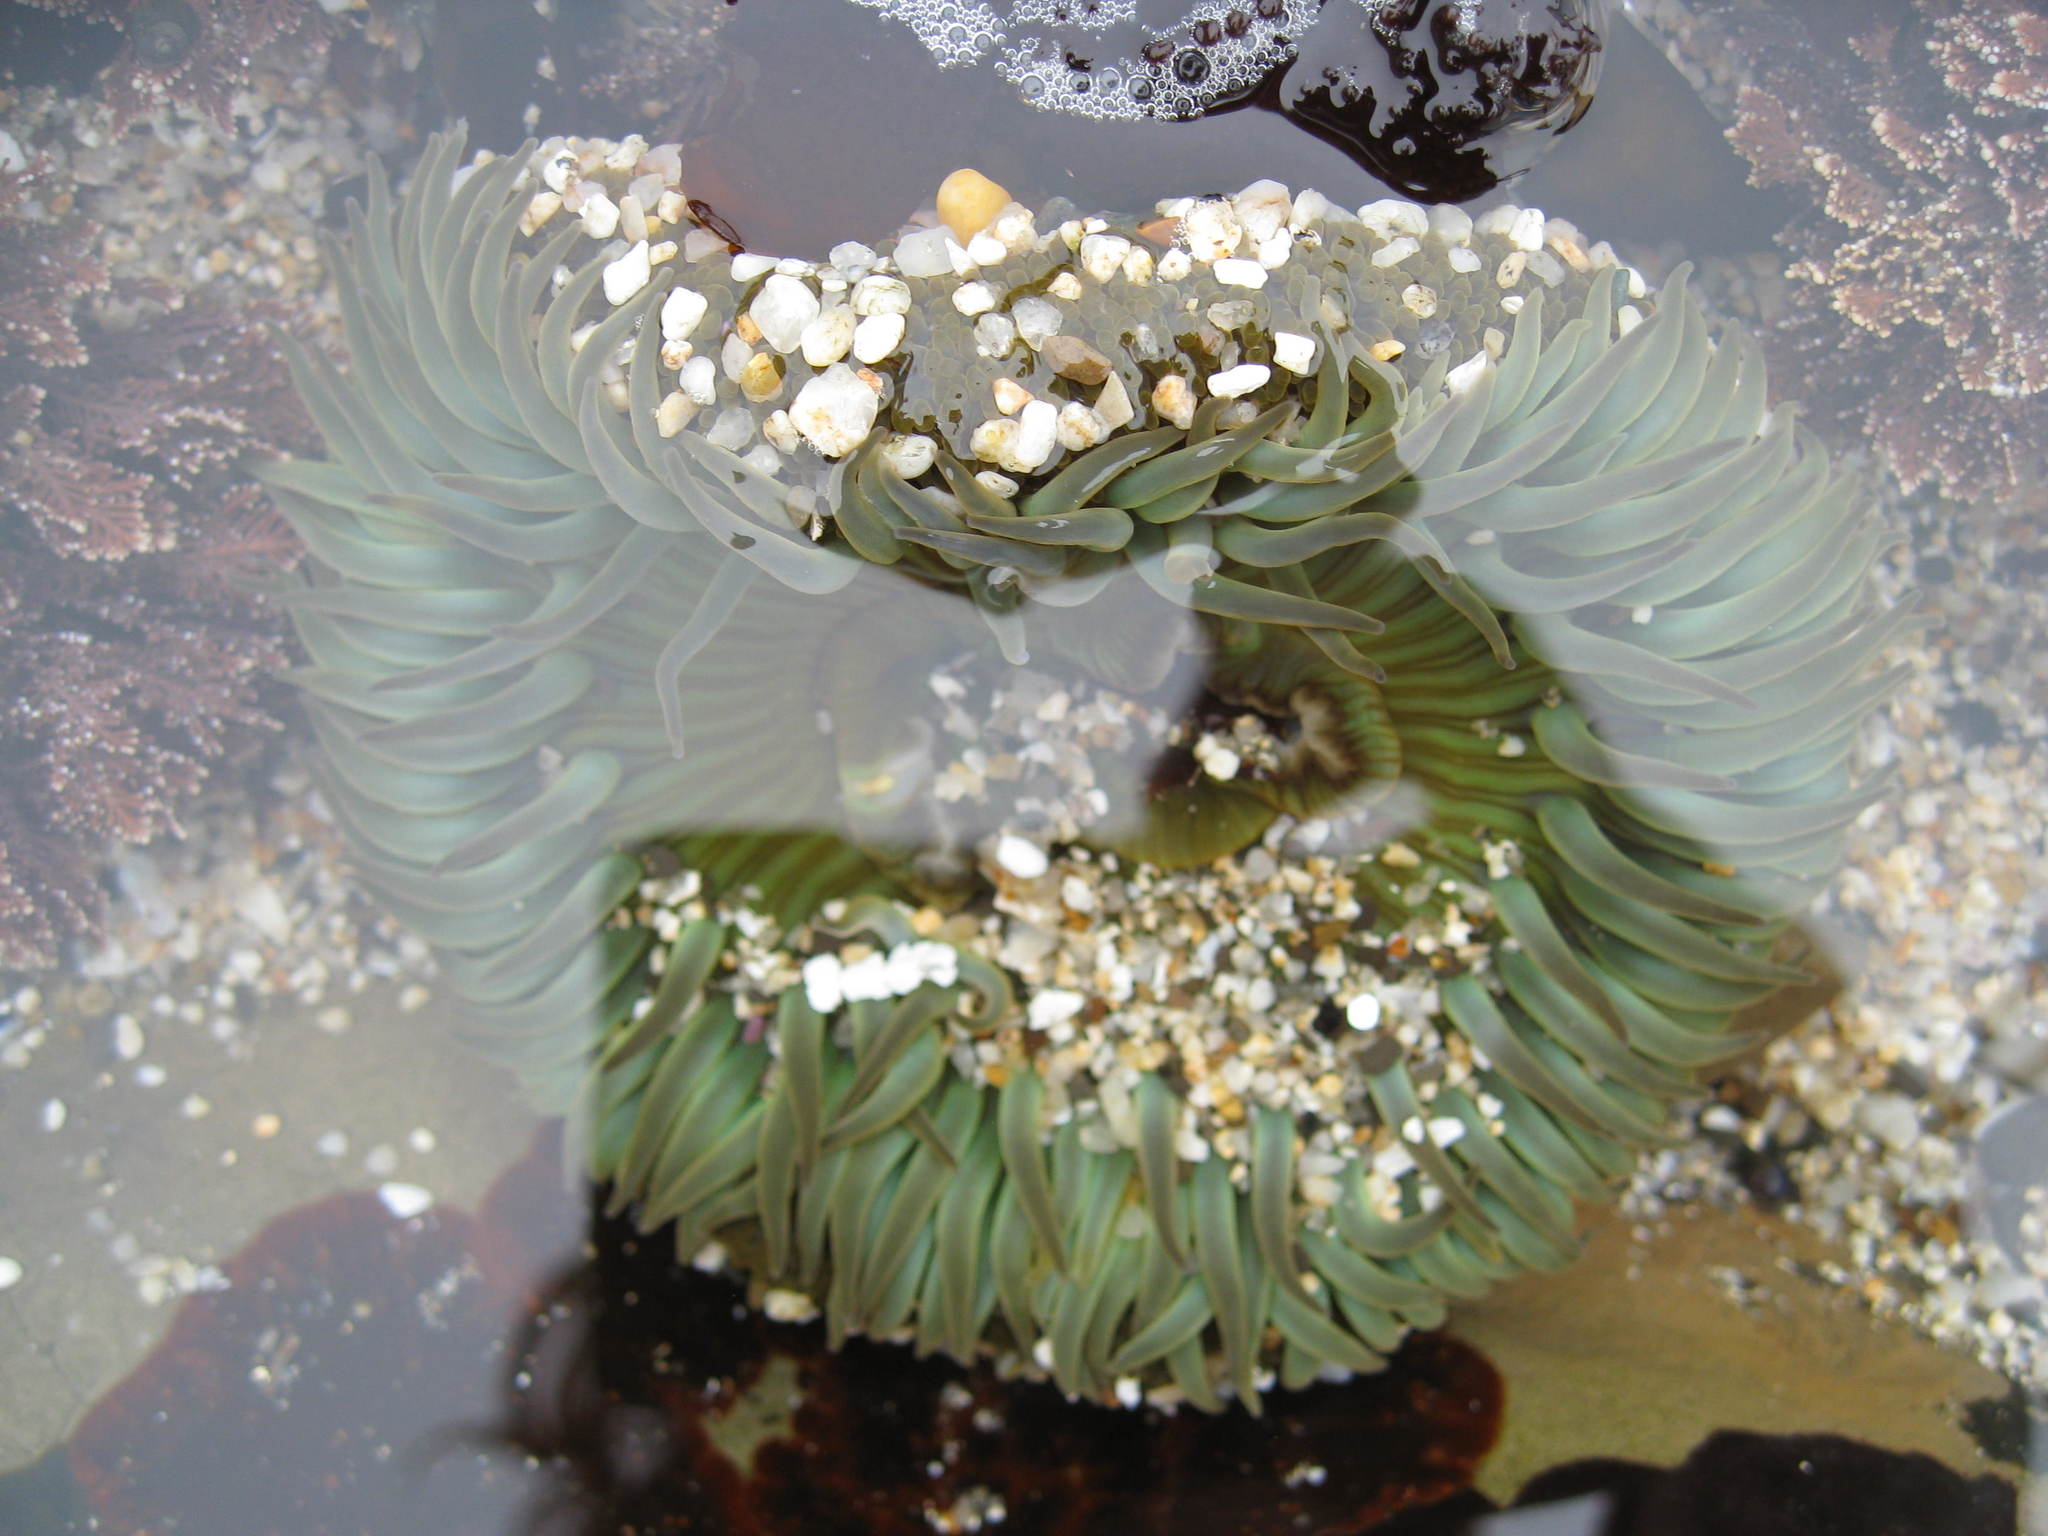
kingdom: Animalia
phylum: Cnidaria
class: Anthozoa
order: Actiniaria
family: Actiniidae
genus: Anthopleura
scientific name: Anthopleura sola
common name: Sun anemone
